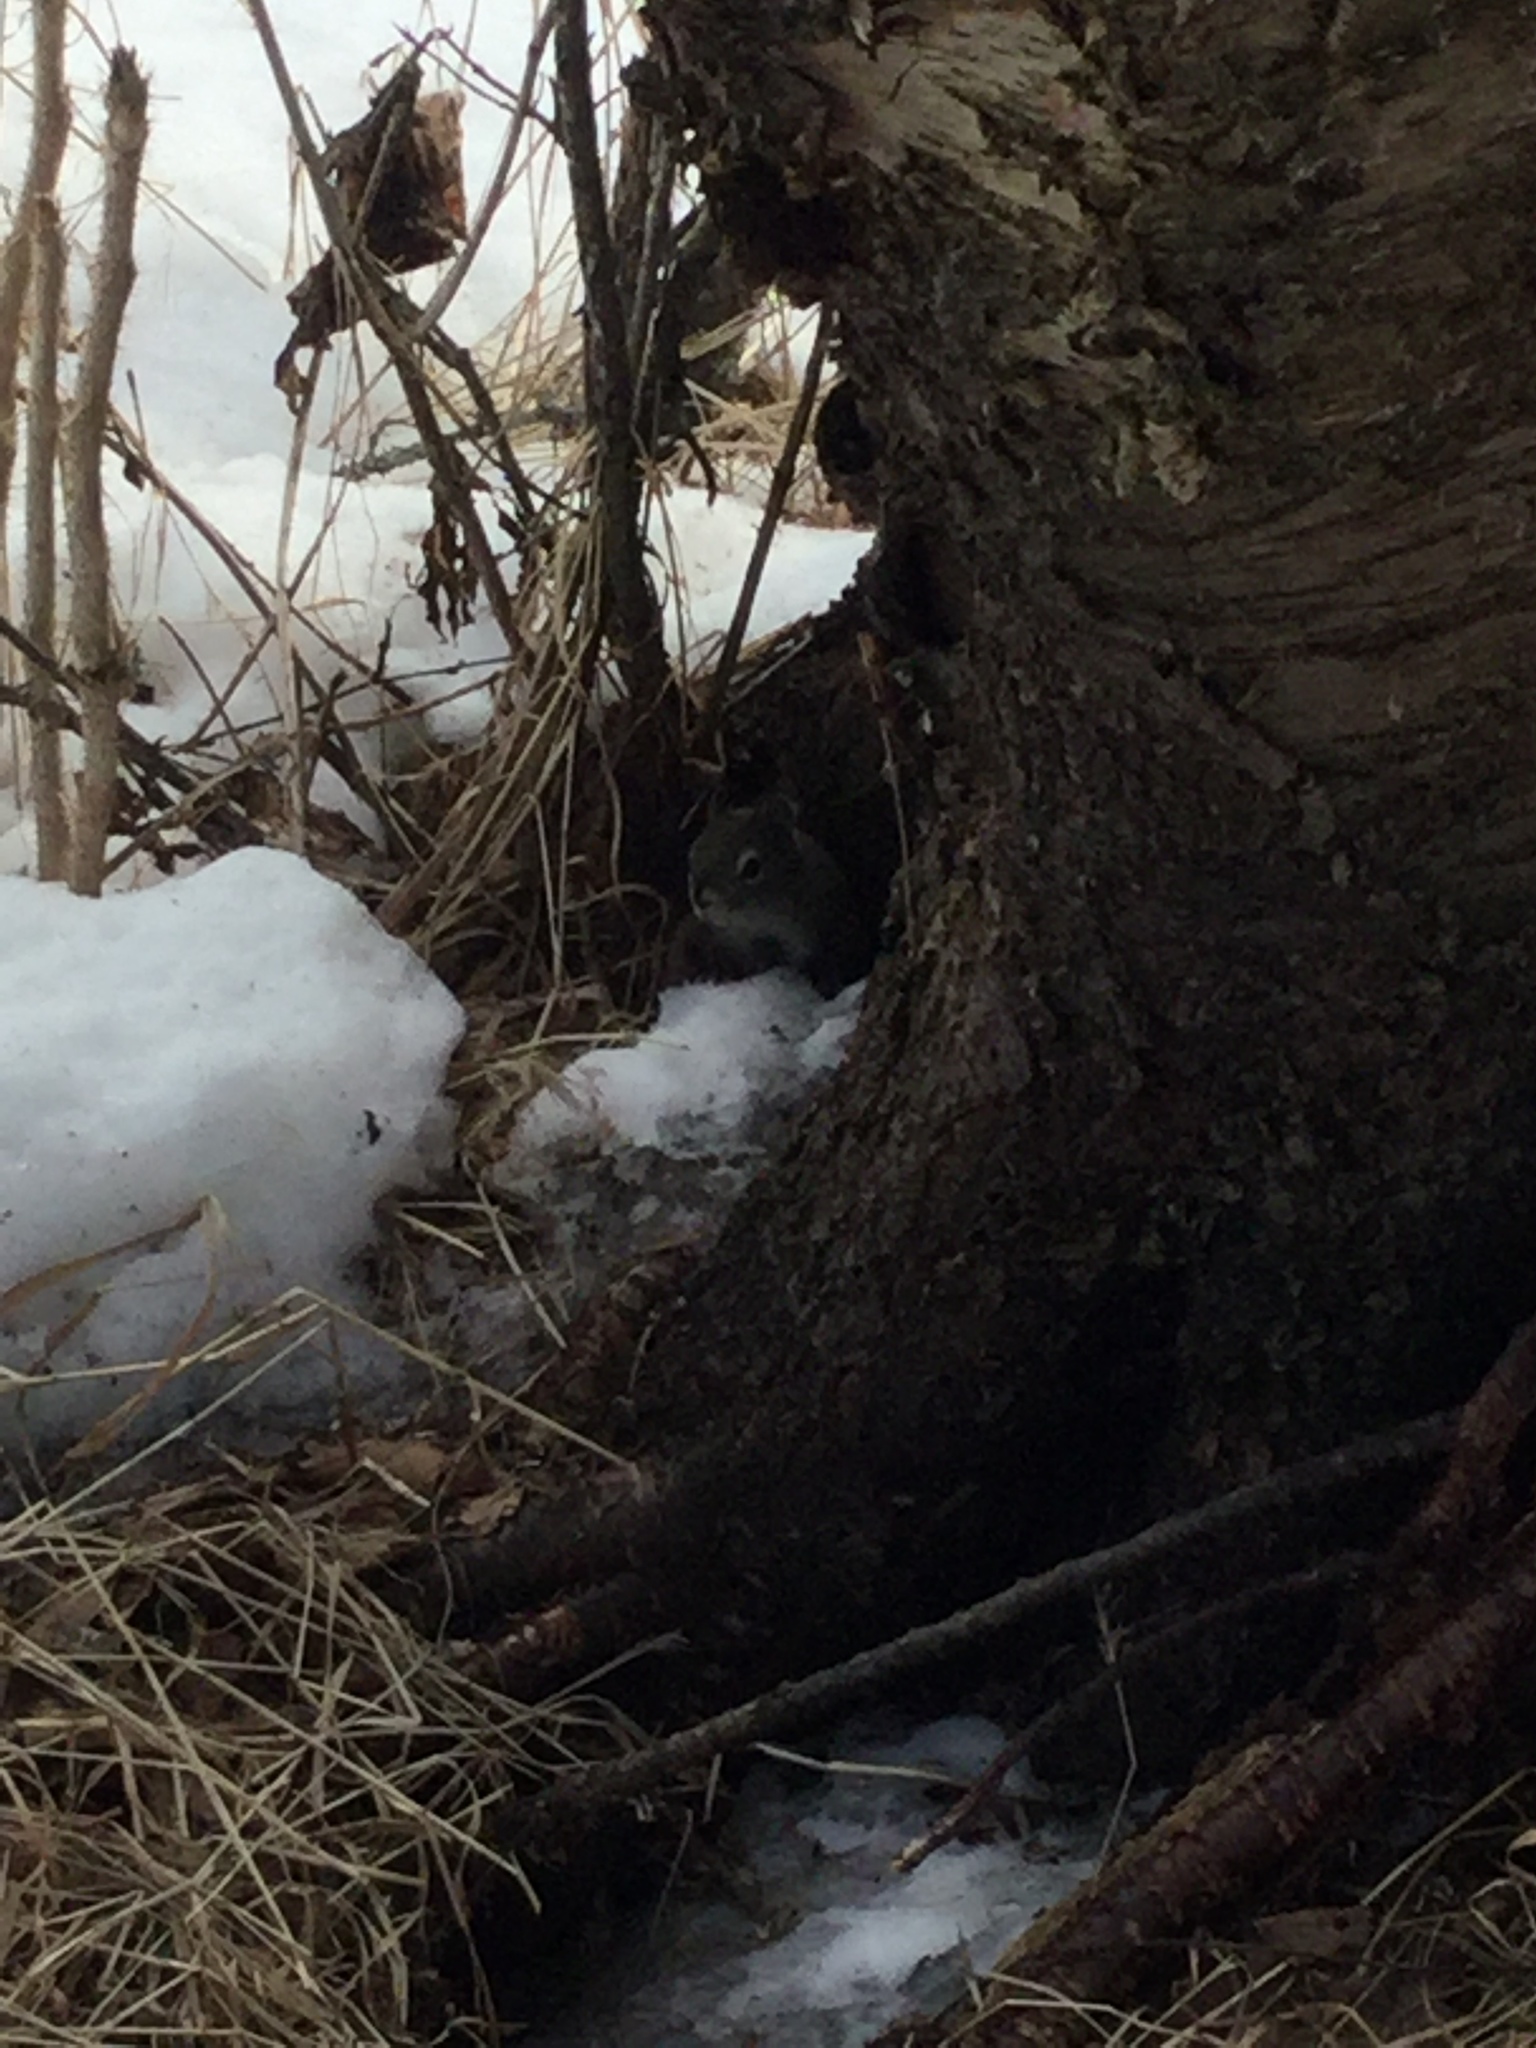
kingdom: Animalia
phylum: Chordata
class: Mammalia
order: Rodentia
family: Sciuridae
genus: Tamiasciurus
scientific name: Tamiasciurus hudsonicus
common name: Red squirrel
